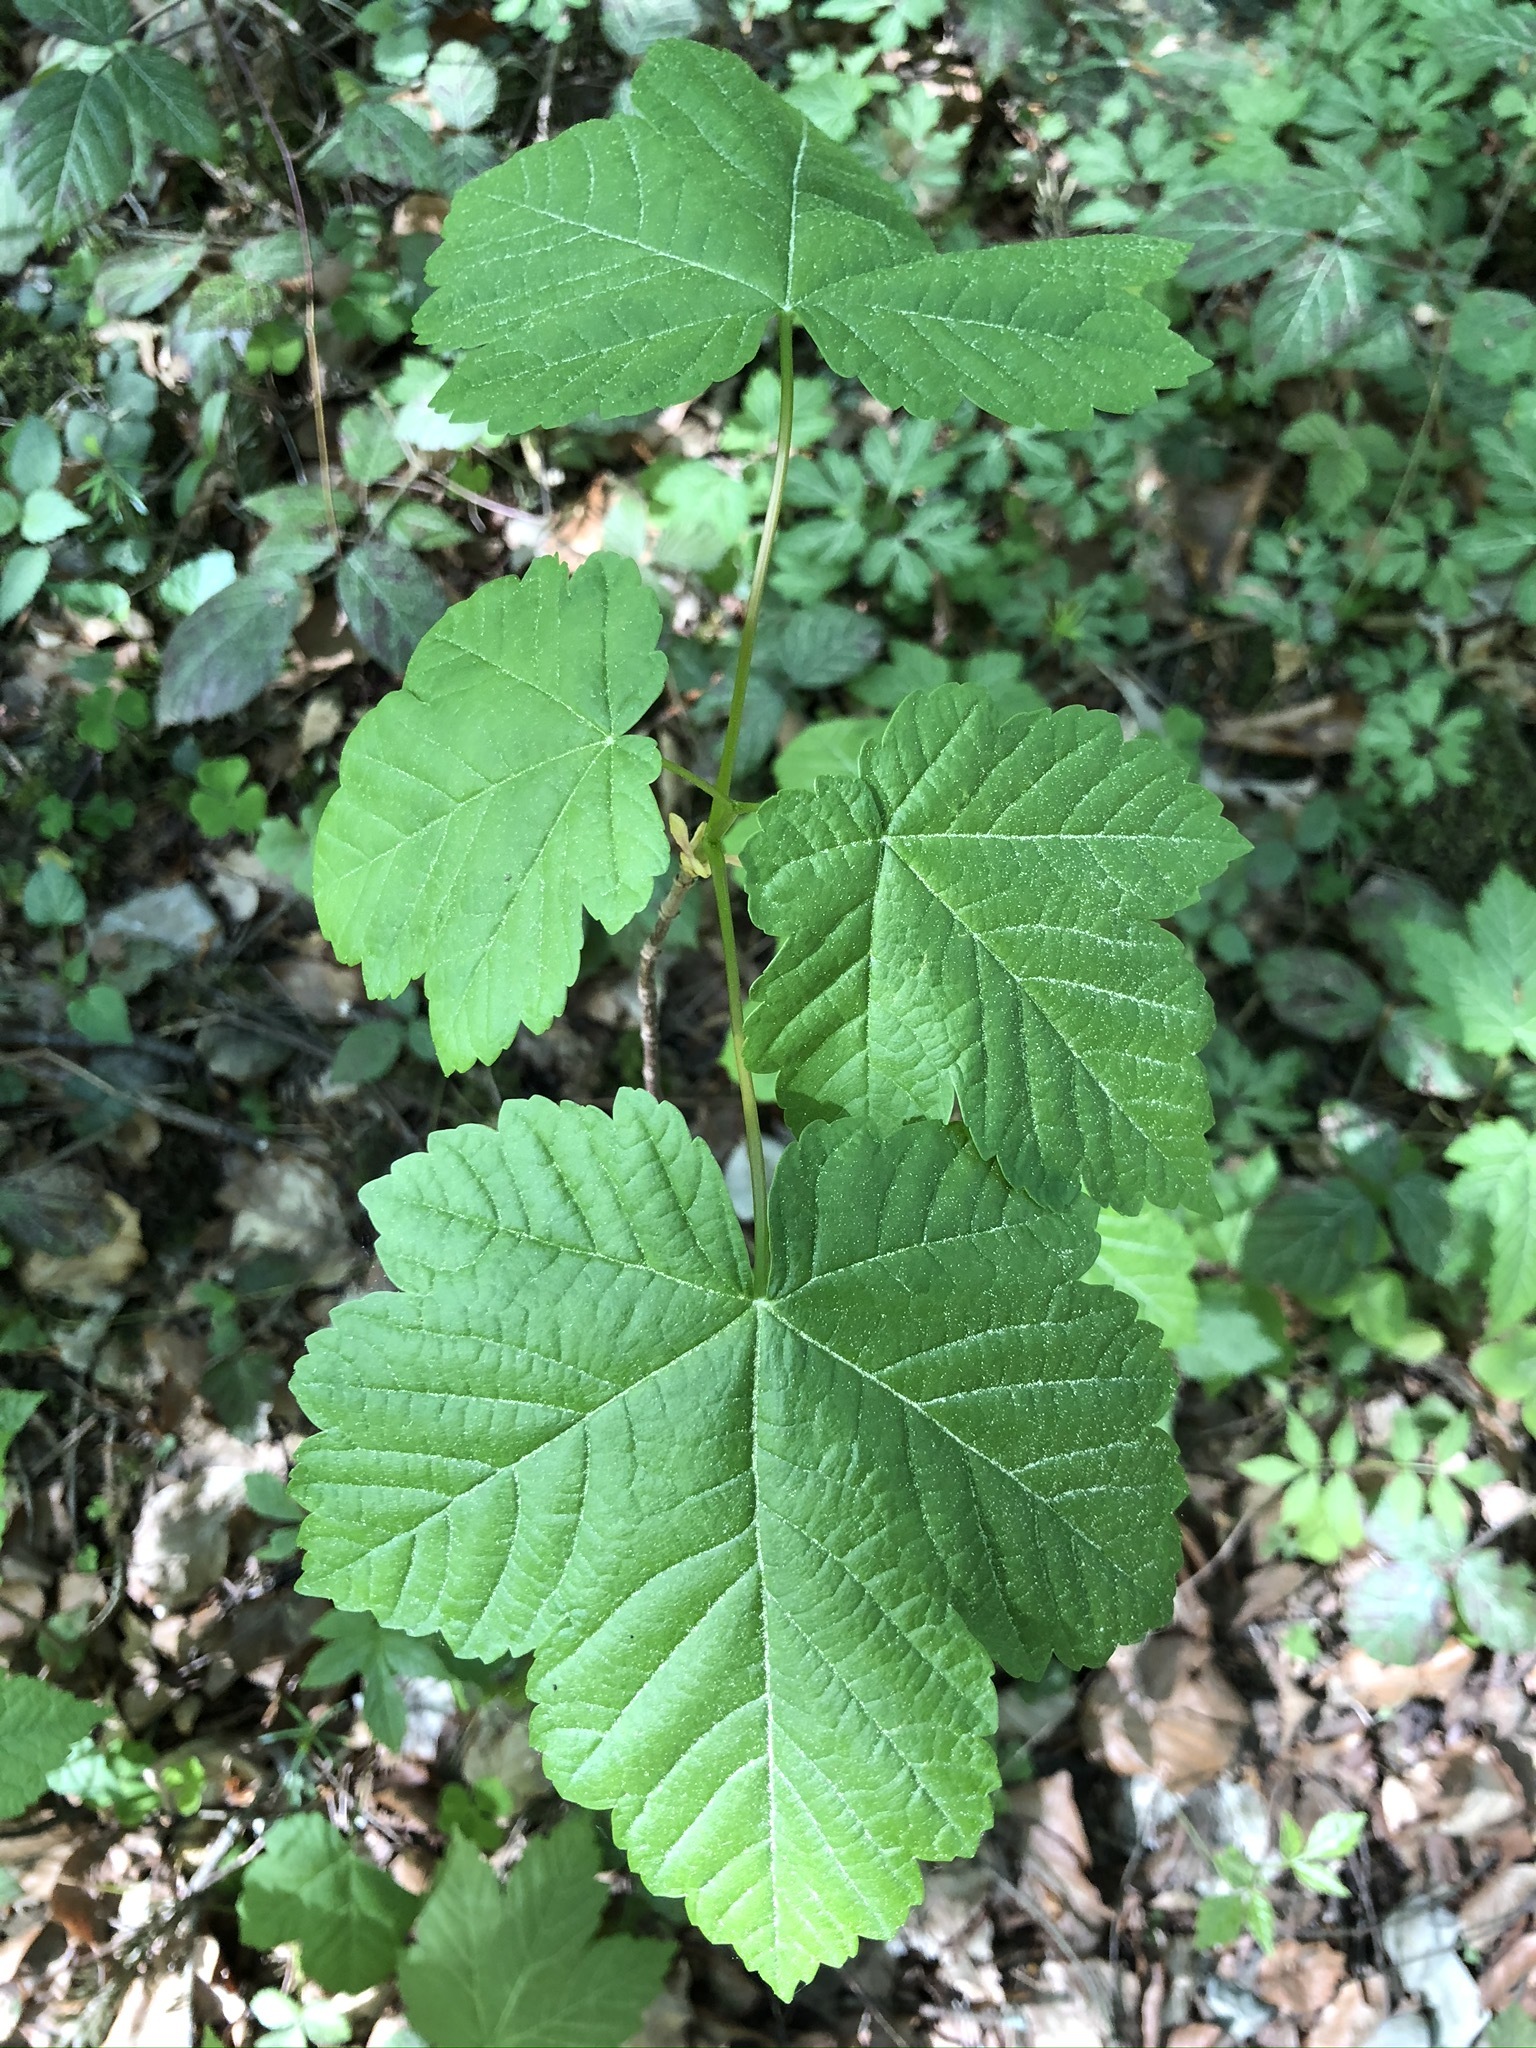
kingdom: Plantae
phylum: Tracheophyta
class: Magnoliopsida
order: Sapindales
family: Sapindaceae
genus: Acer
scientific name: Acer pseudoplatanus
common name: Sycamore
